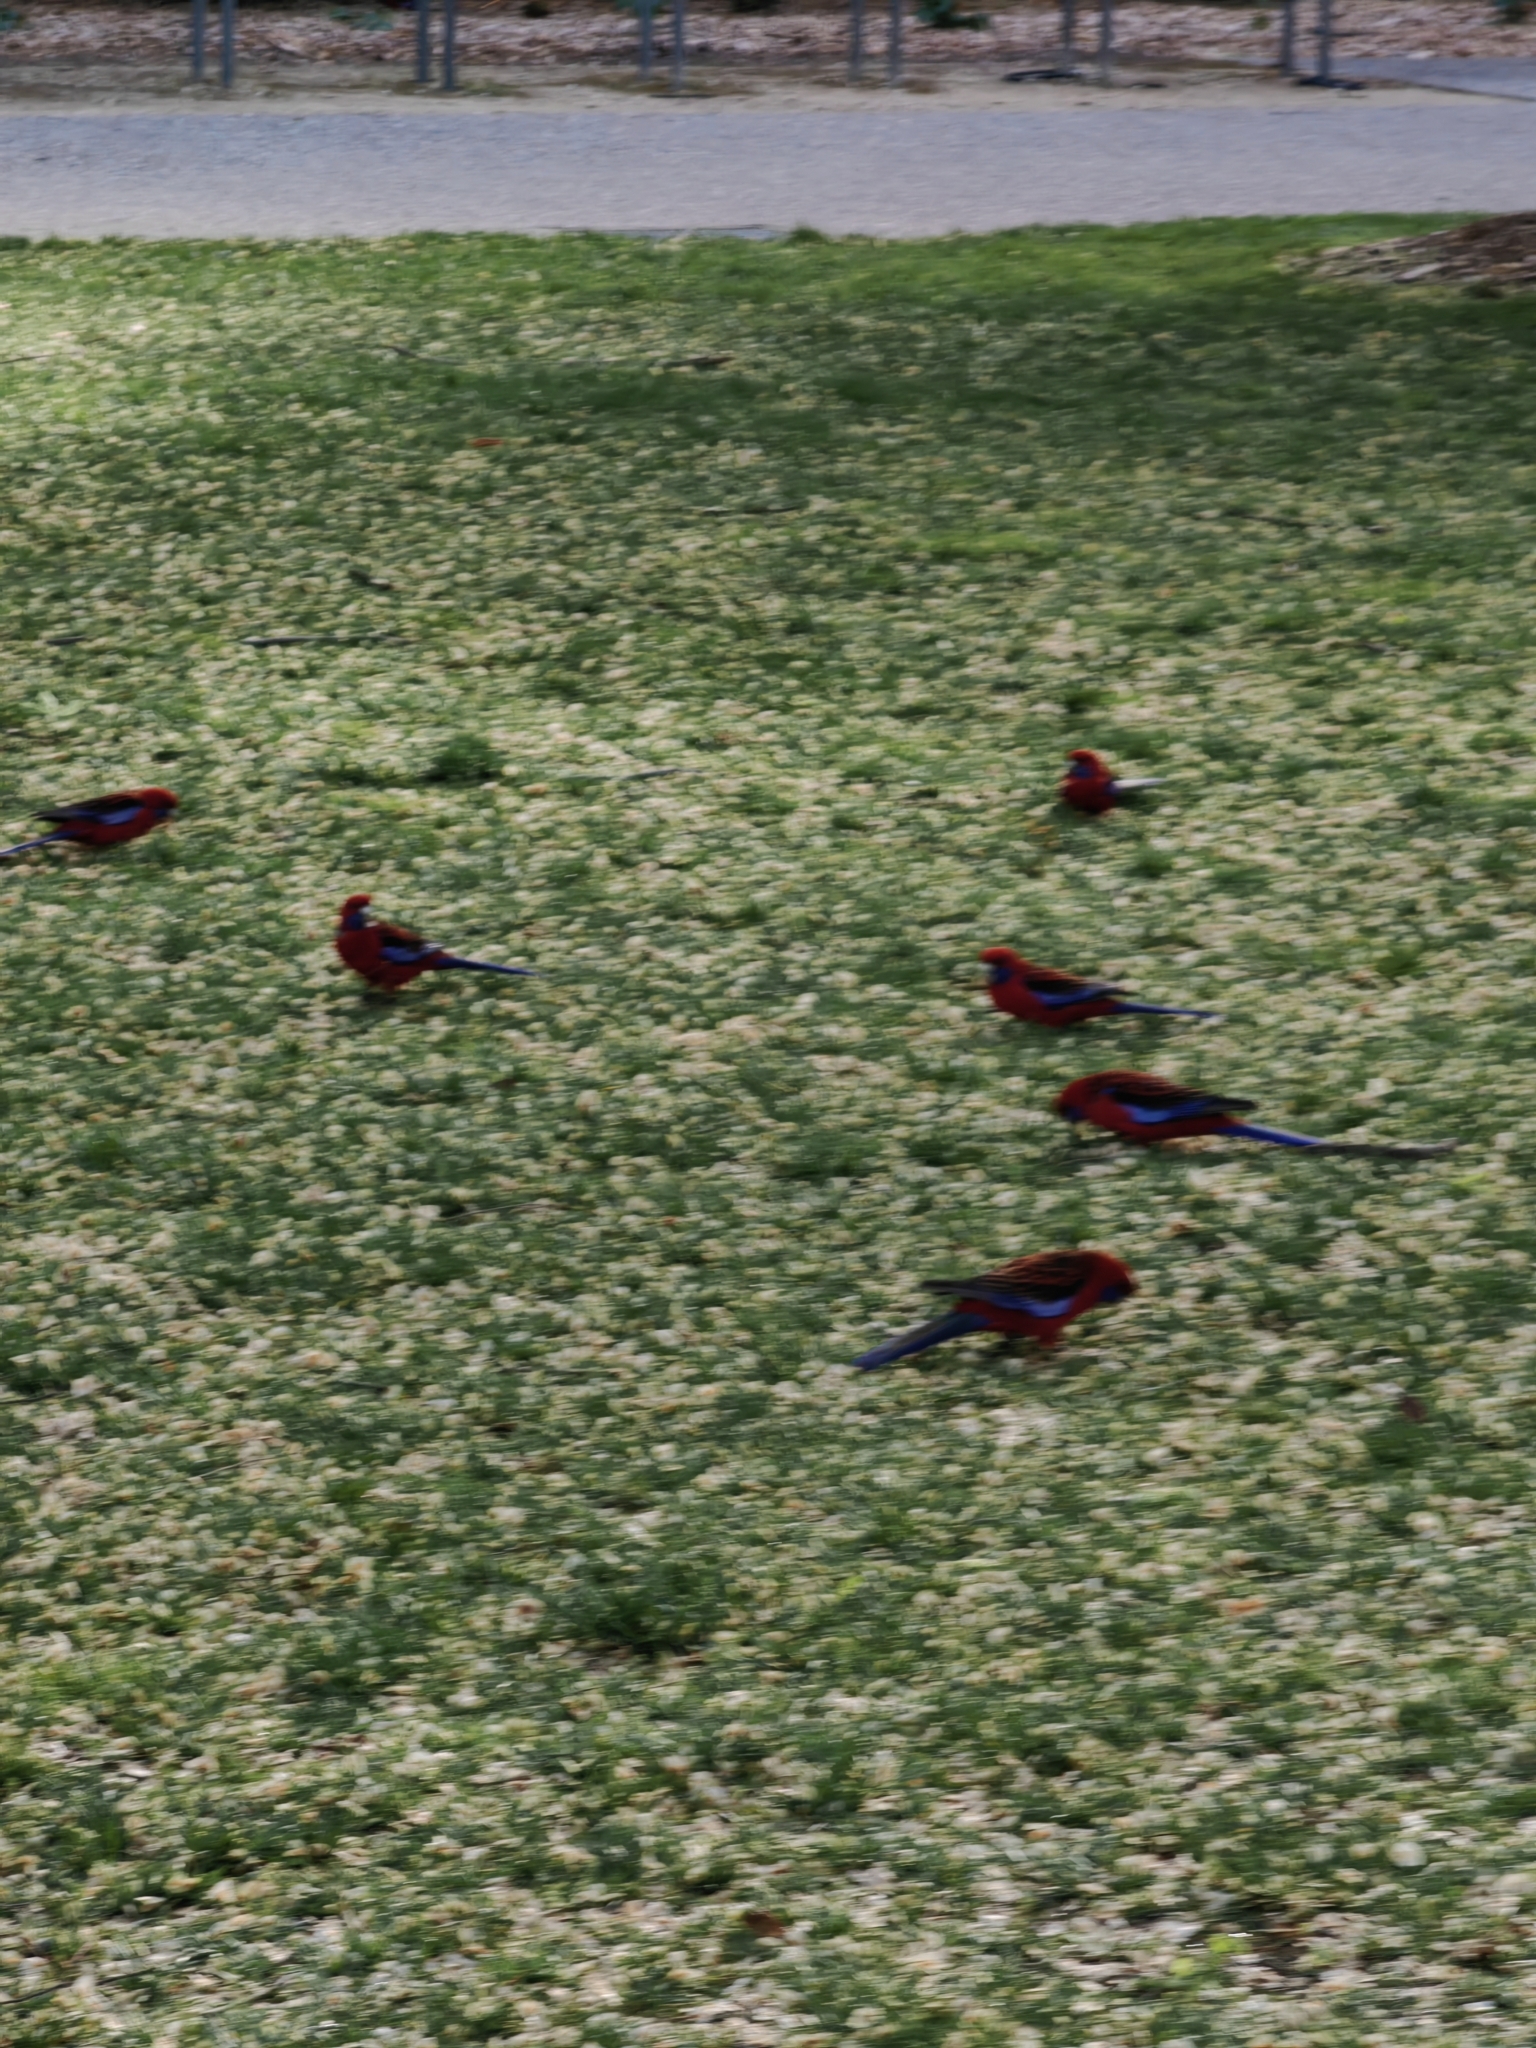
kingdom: Animalia
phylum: Chordata
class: Aves
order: Psittaciformes
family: Psittacidae
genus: Platycercus
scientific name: Platycercus elegans
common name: Crimson rosella
